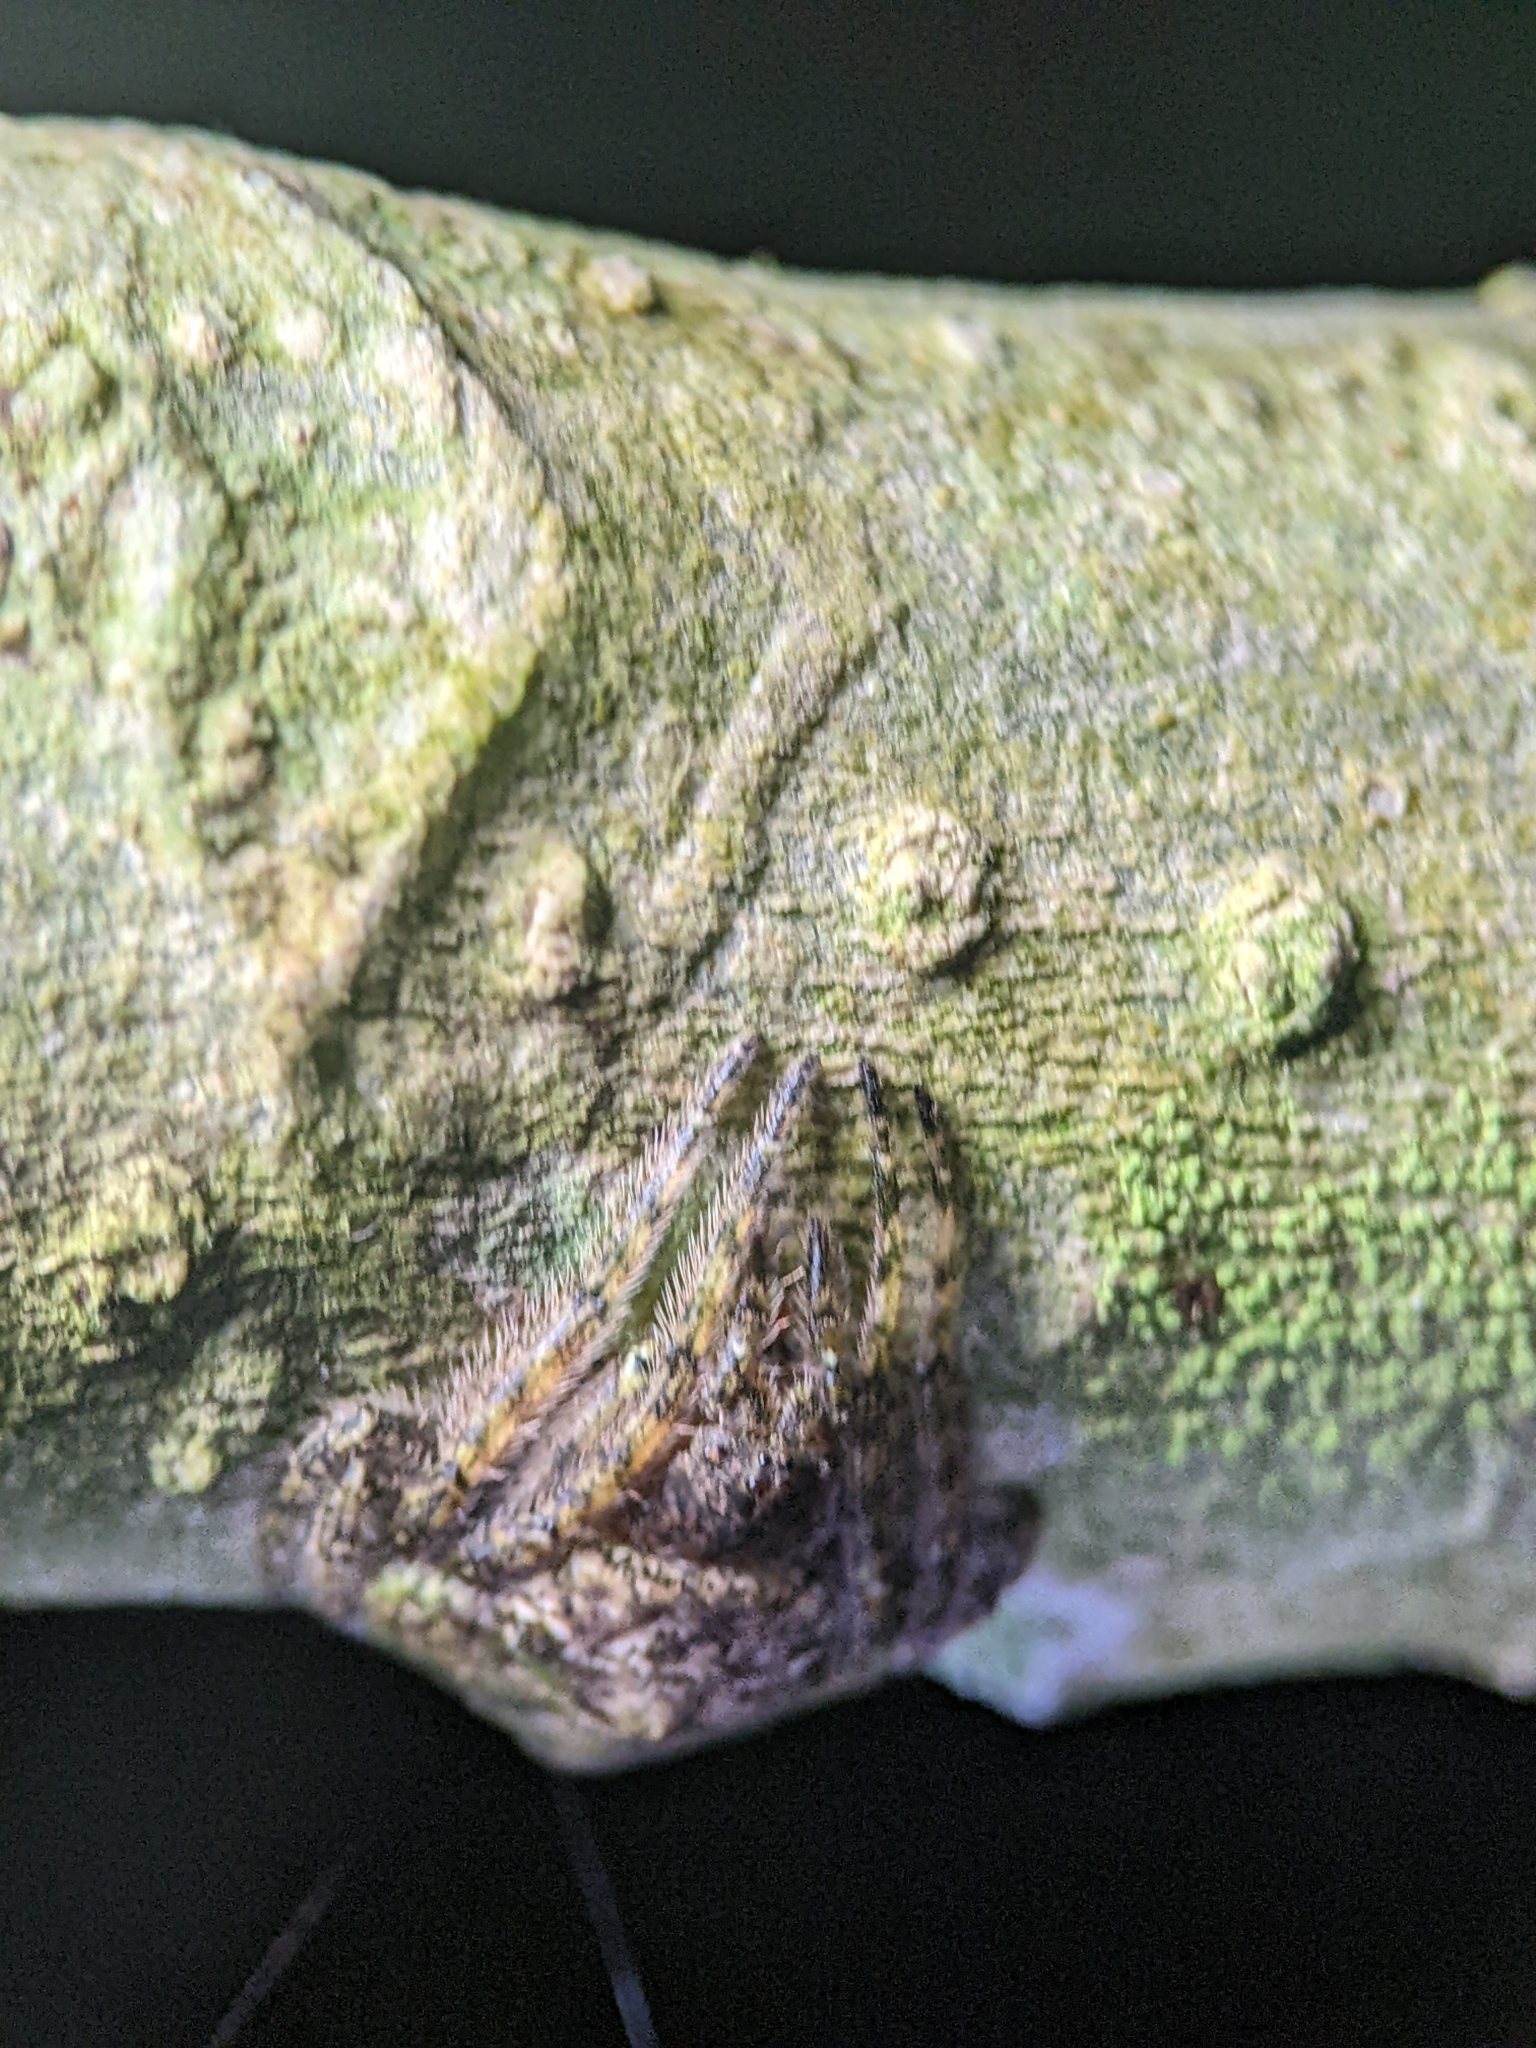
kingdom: Animalia
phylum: Arthropoda
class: Arachnida
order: Araneae
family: Araneidae
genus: Talthybia
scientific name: Talthybia depressa
